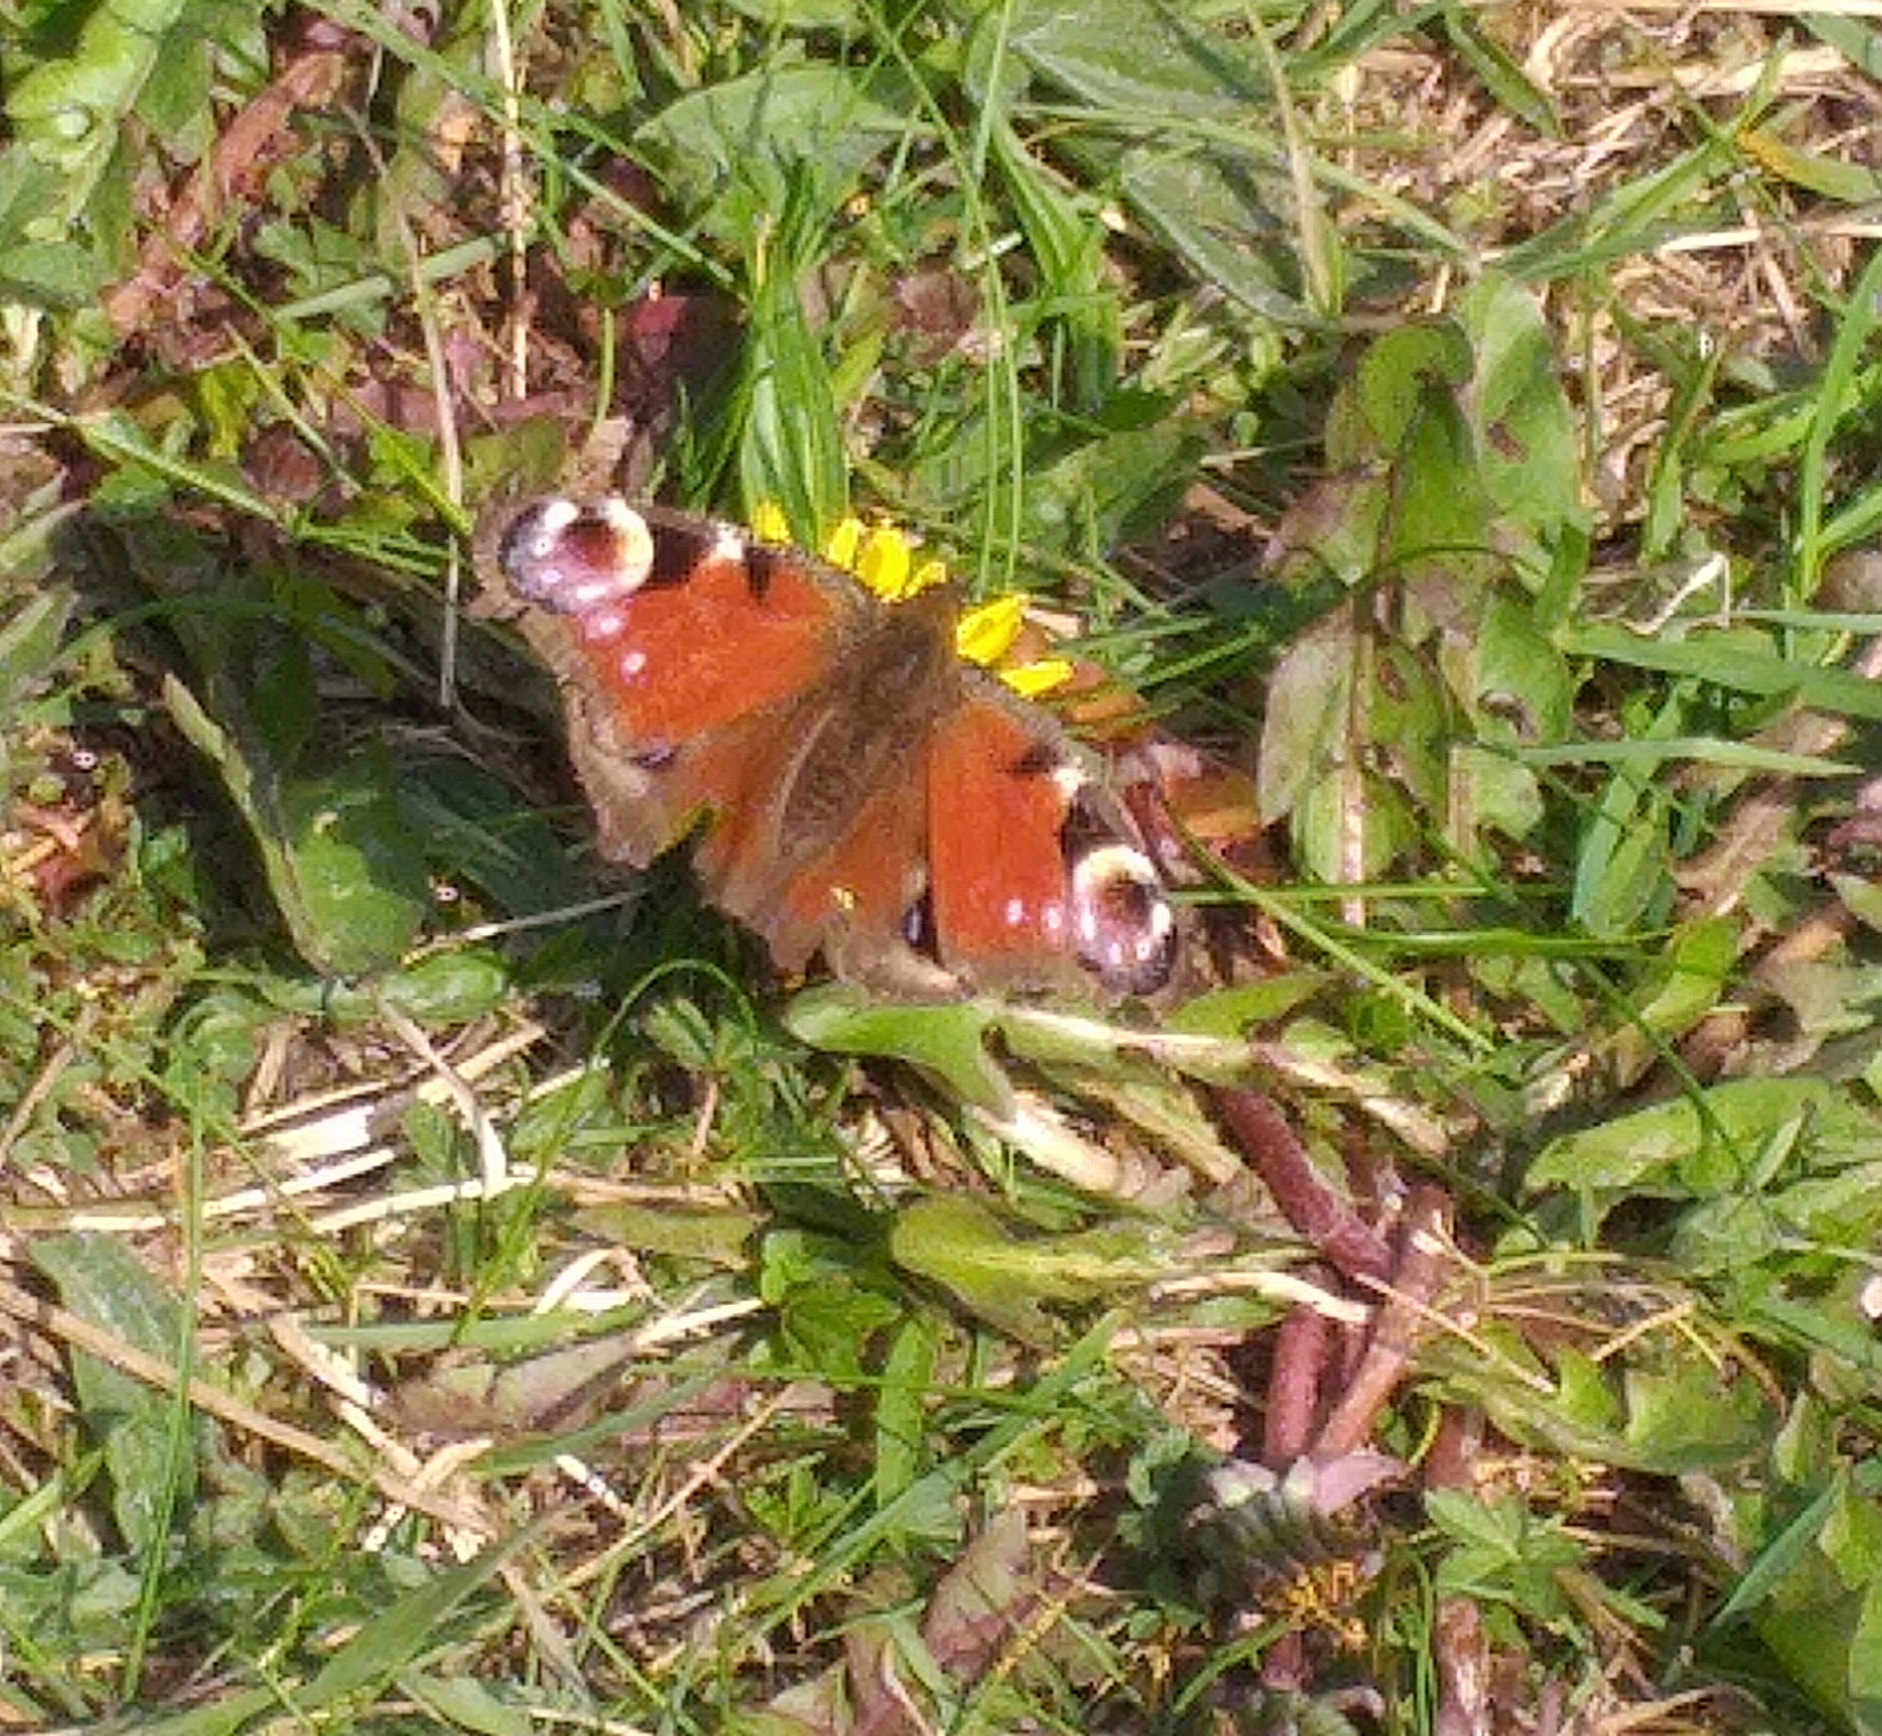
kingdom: Animalia
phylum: Arthropoda
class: Insecta
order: Lepidoptera
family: Nymphalidae
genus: Aglais
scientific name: Aglais io
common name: Peacock
